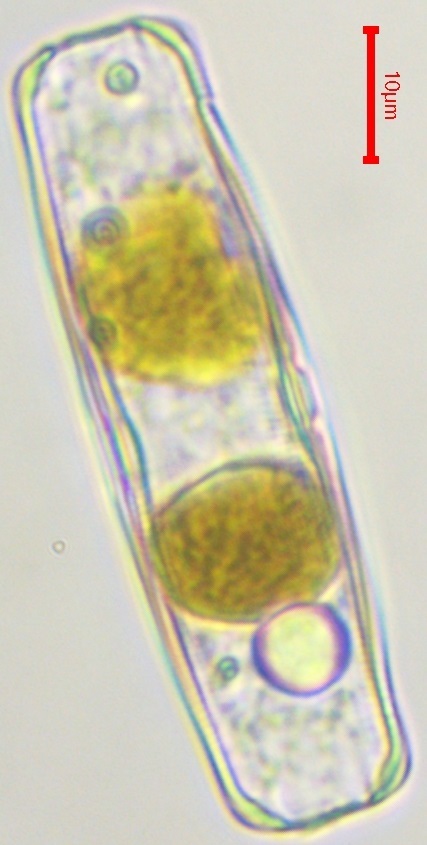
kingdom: Chromista
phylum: Ochrophyta
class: Bacillariophyceae
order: Naviculales
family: Naviculaceae
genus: Caloneis
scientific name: Caloneis amphisbaena
